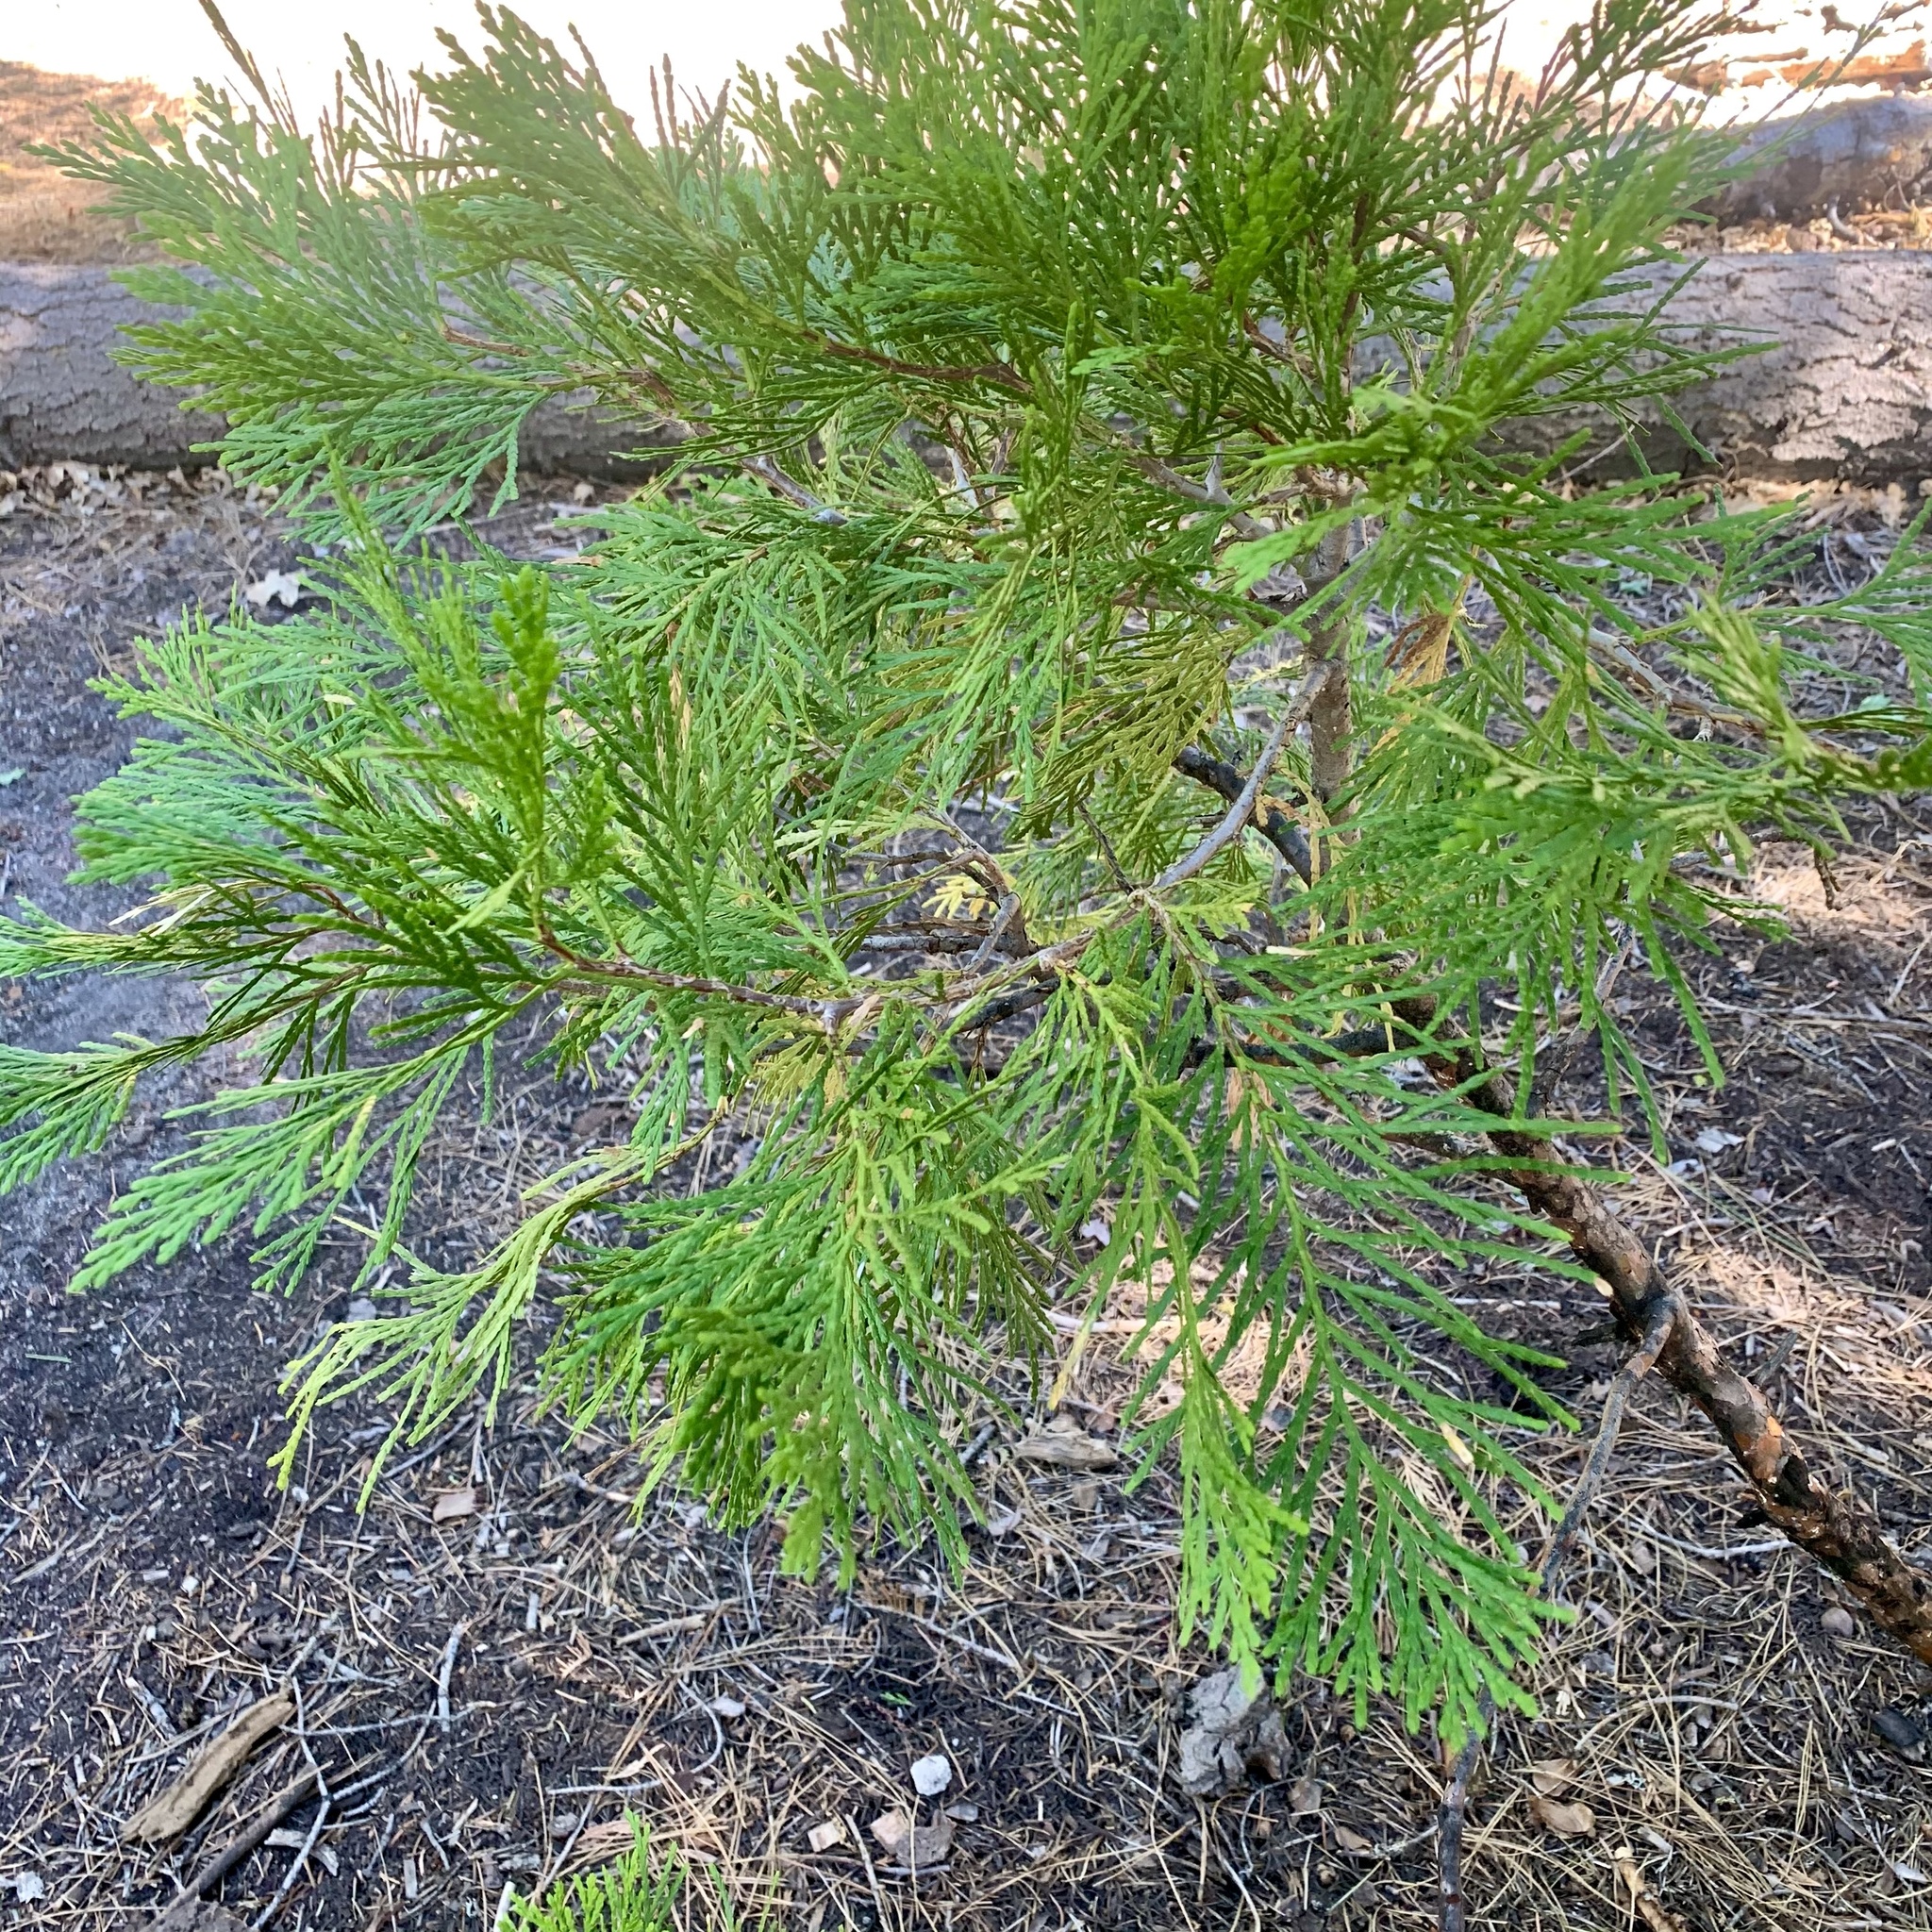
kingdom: Plantae
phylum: Tracheophyta
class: Pinopsida
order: Pinales
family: Cupressaceae
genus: Calocedrus
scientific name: Calocedrus decurrens
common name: Californian incense-cedar
